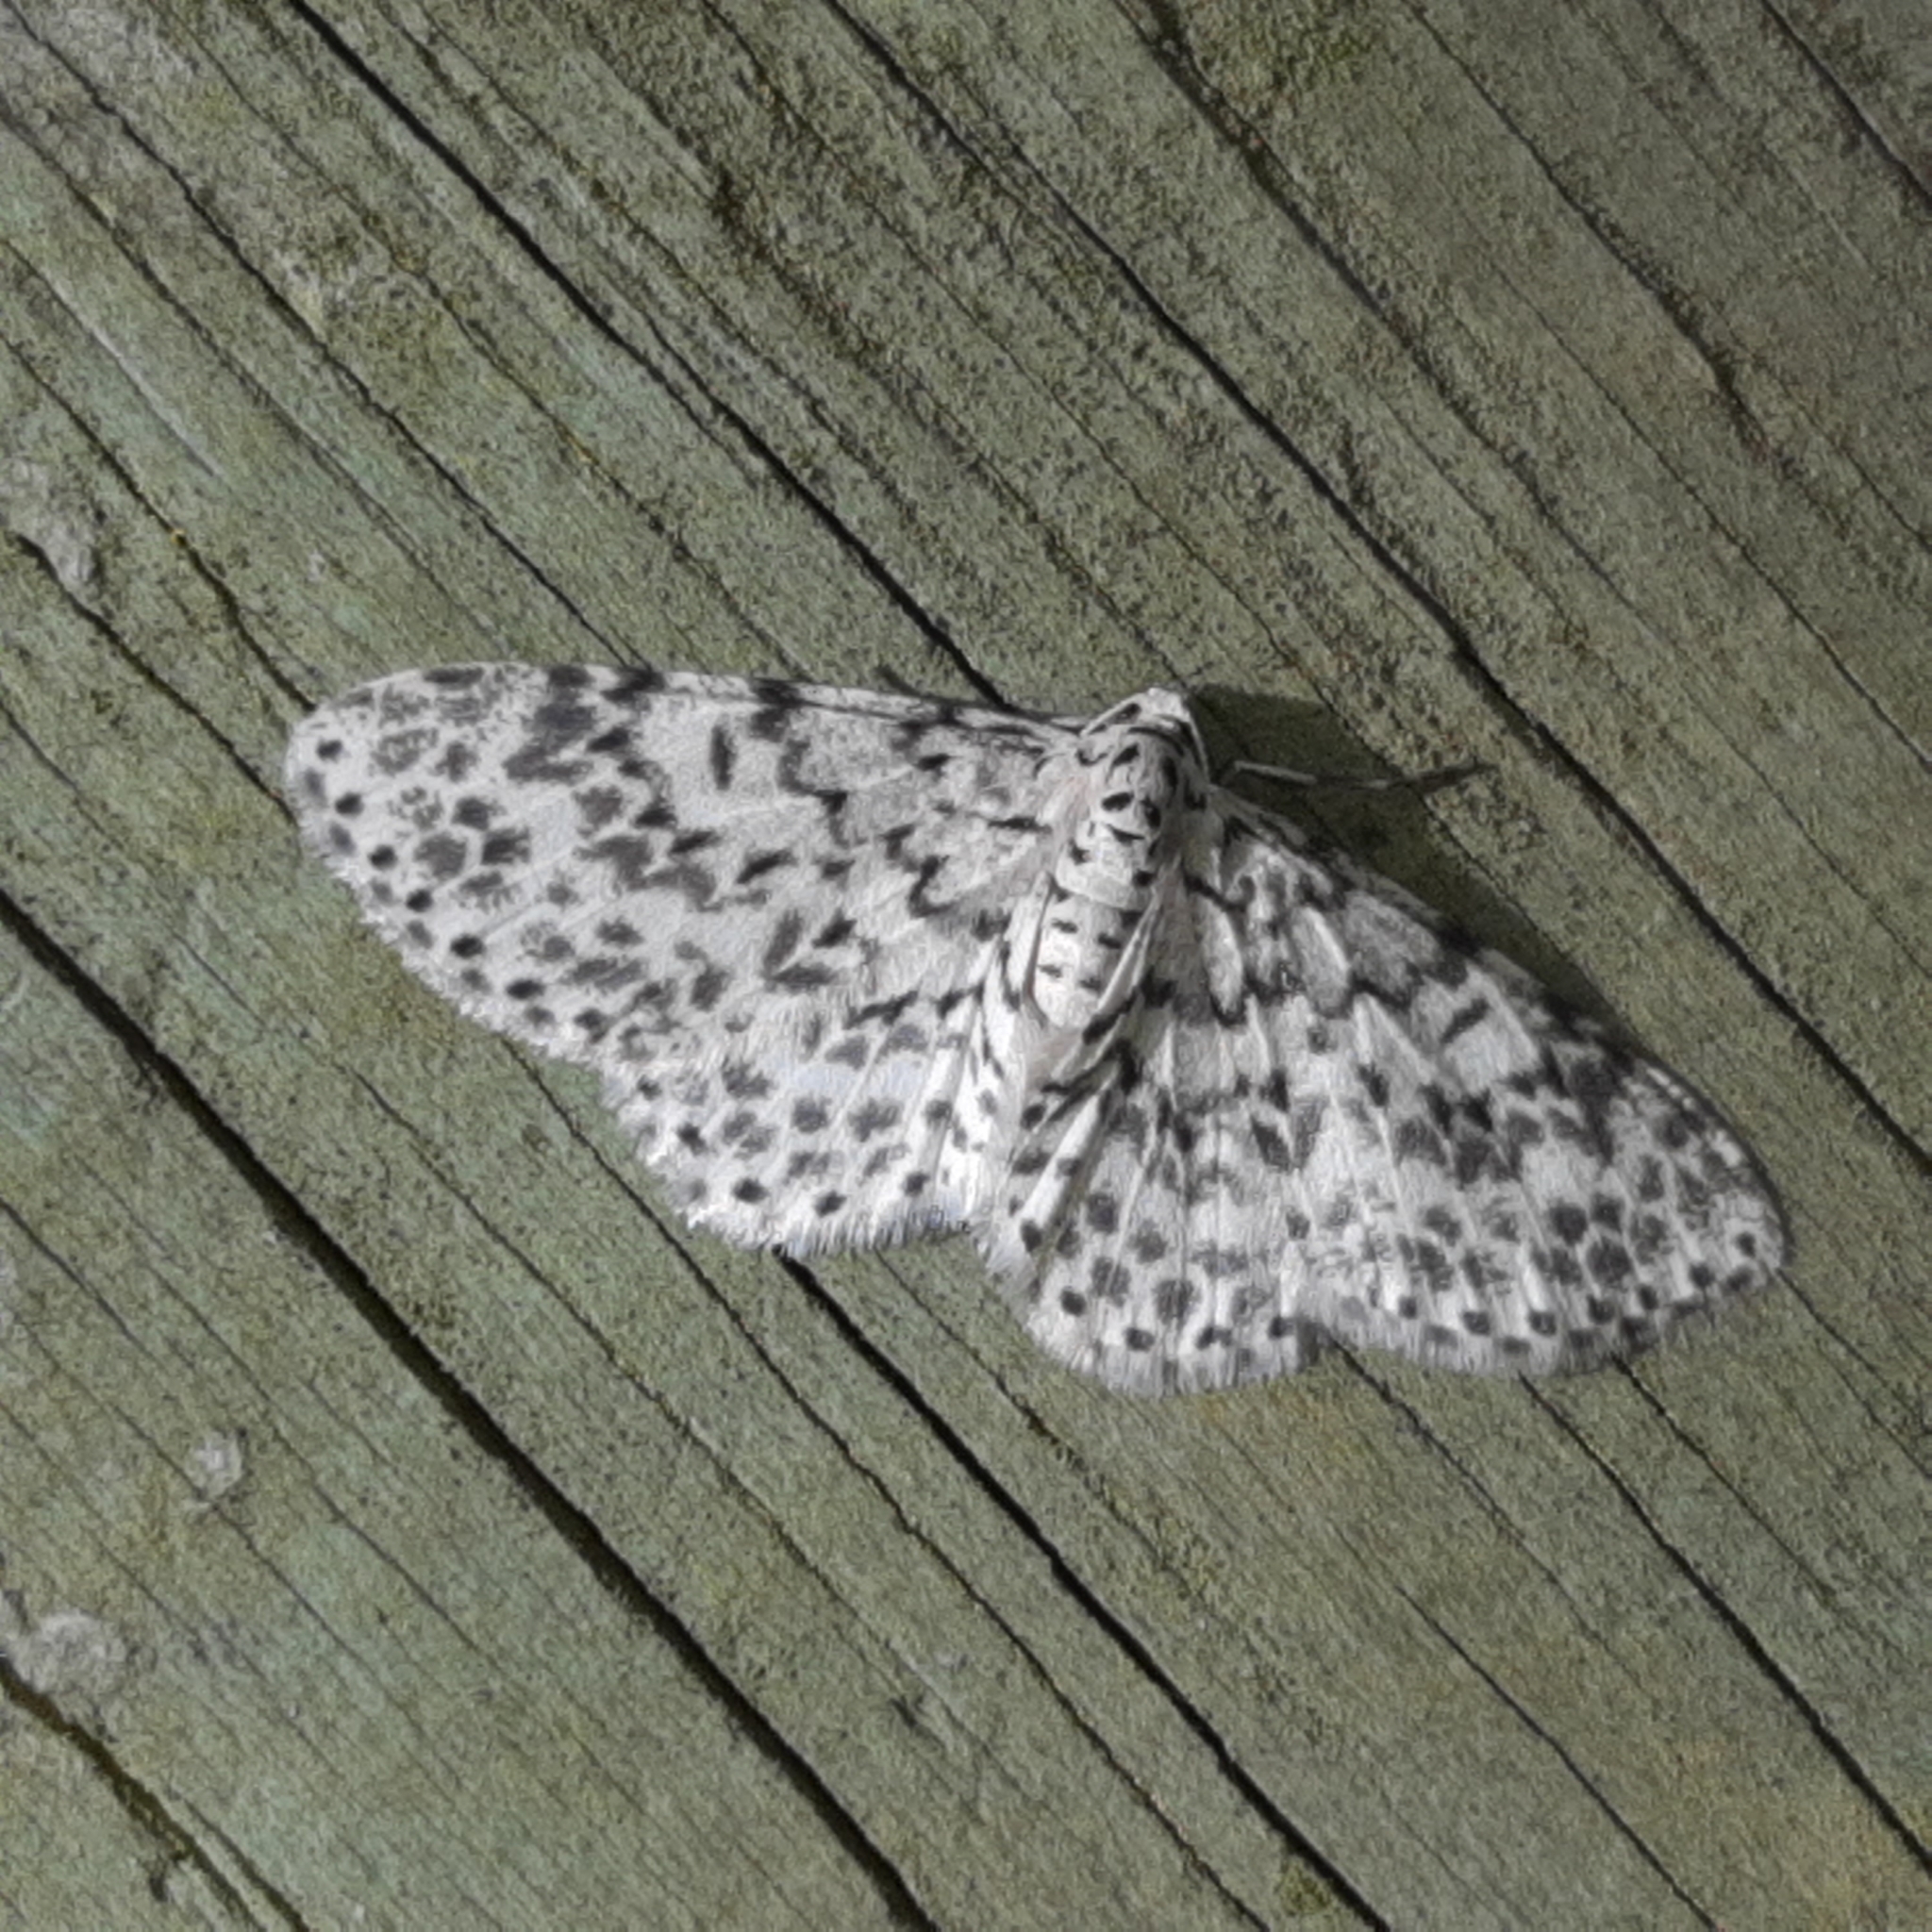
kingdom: Animalia
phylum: Arthropoda
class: Insecta
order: Lepidoptera
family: Geometridae
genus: Hymenomima
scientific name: Hymenomima umbelularia
